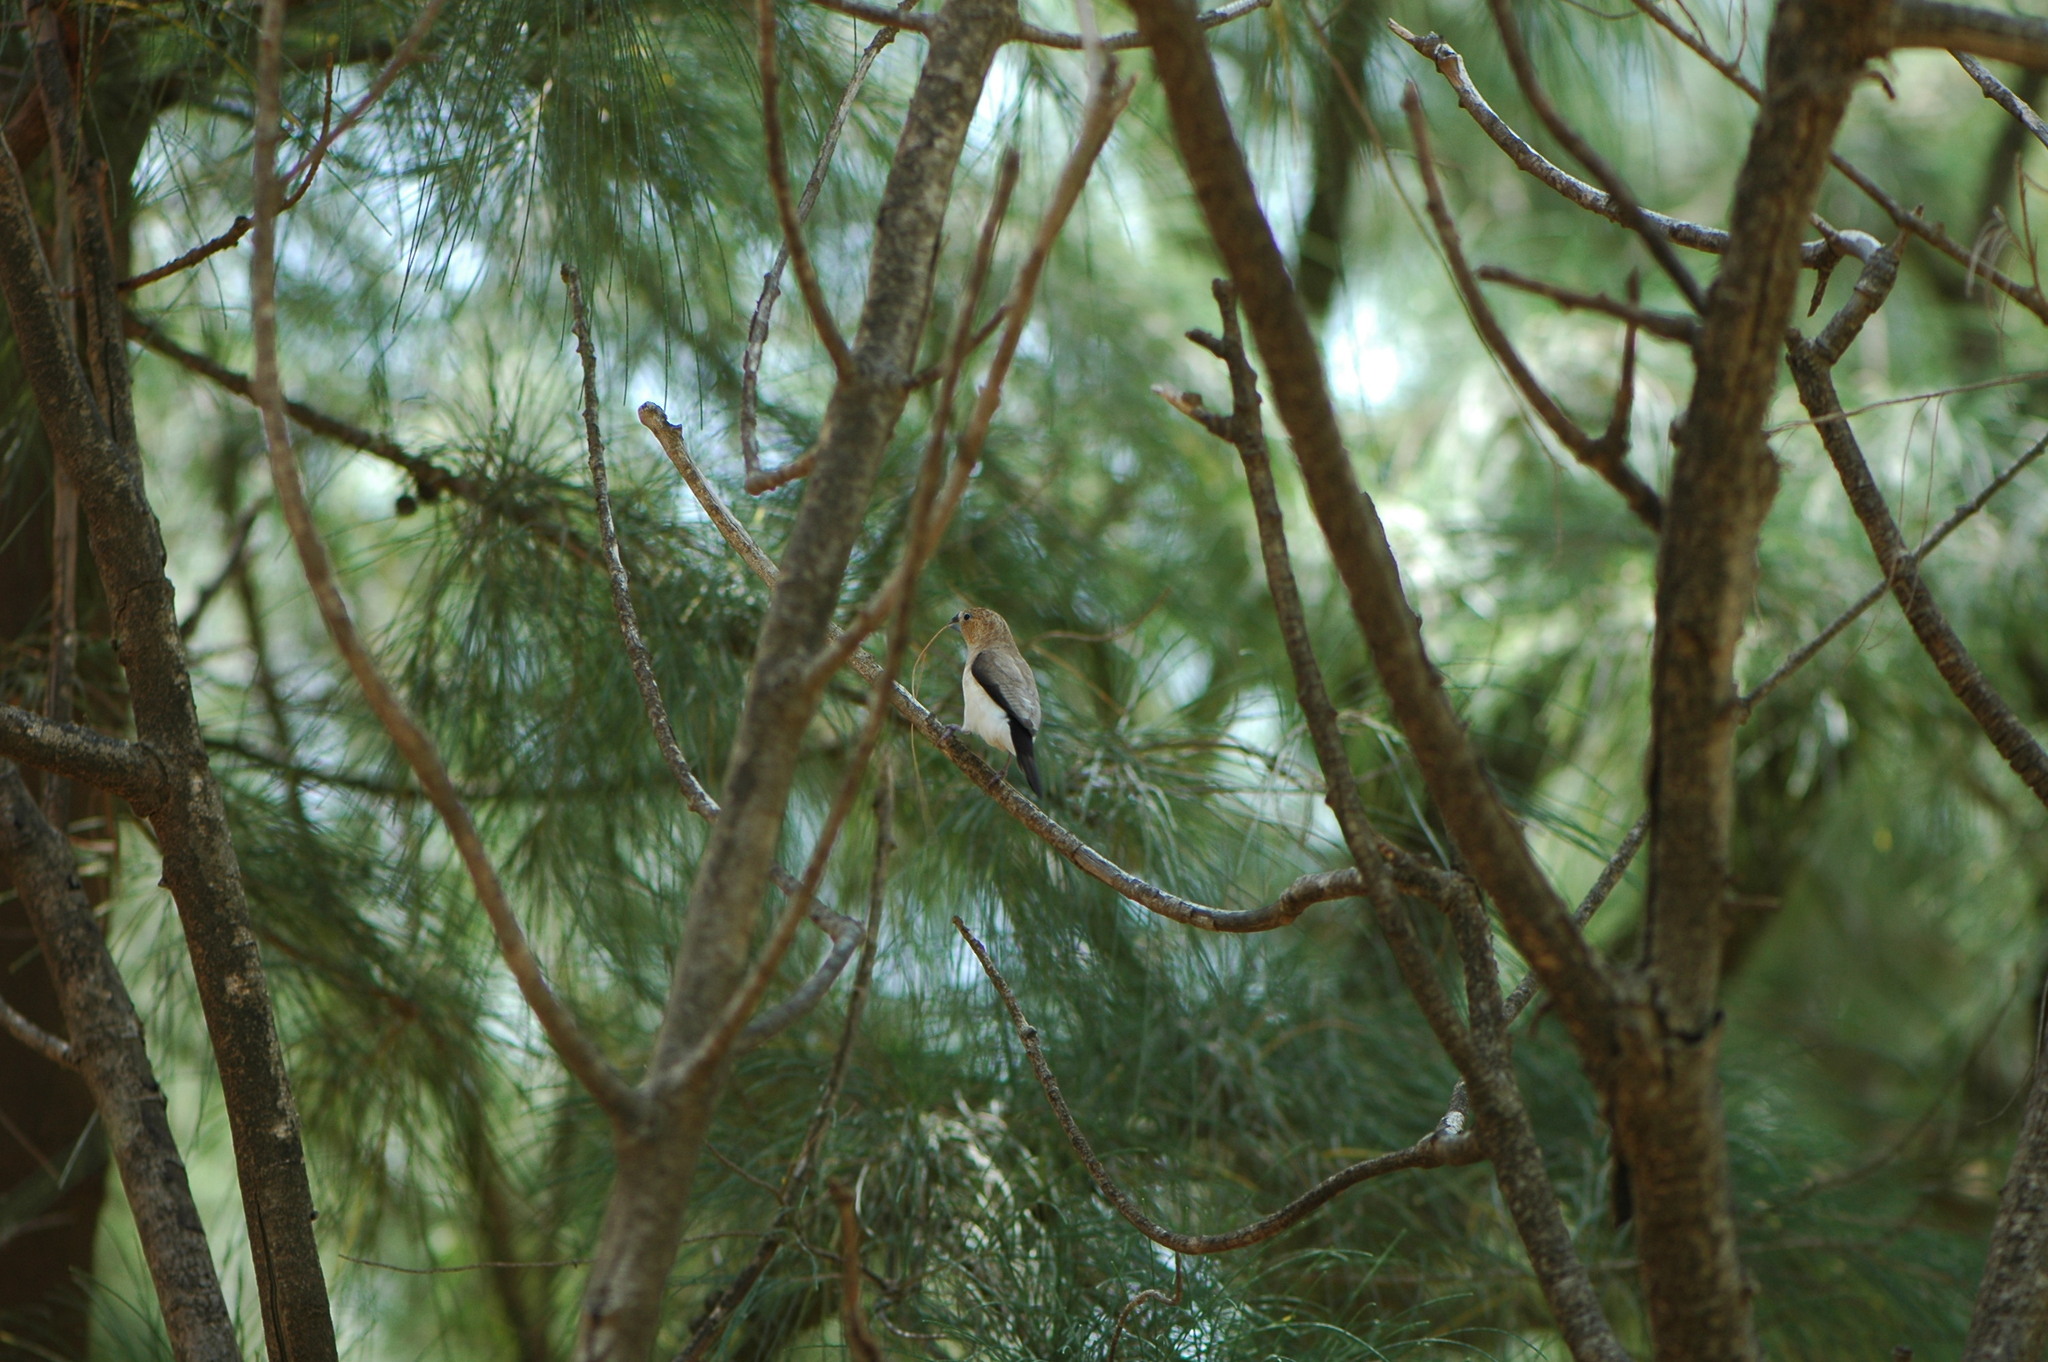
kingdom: Animalia
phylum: Chordata
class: Aves
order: Passeriformes
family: Estrildidae
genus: Euodice
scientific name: Euodice cantans
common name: African silverbill
